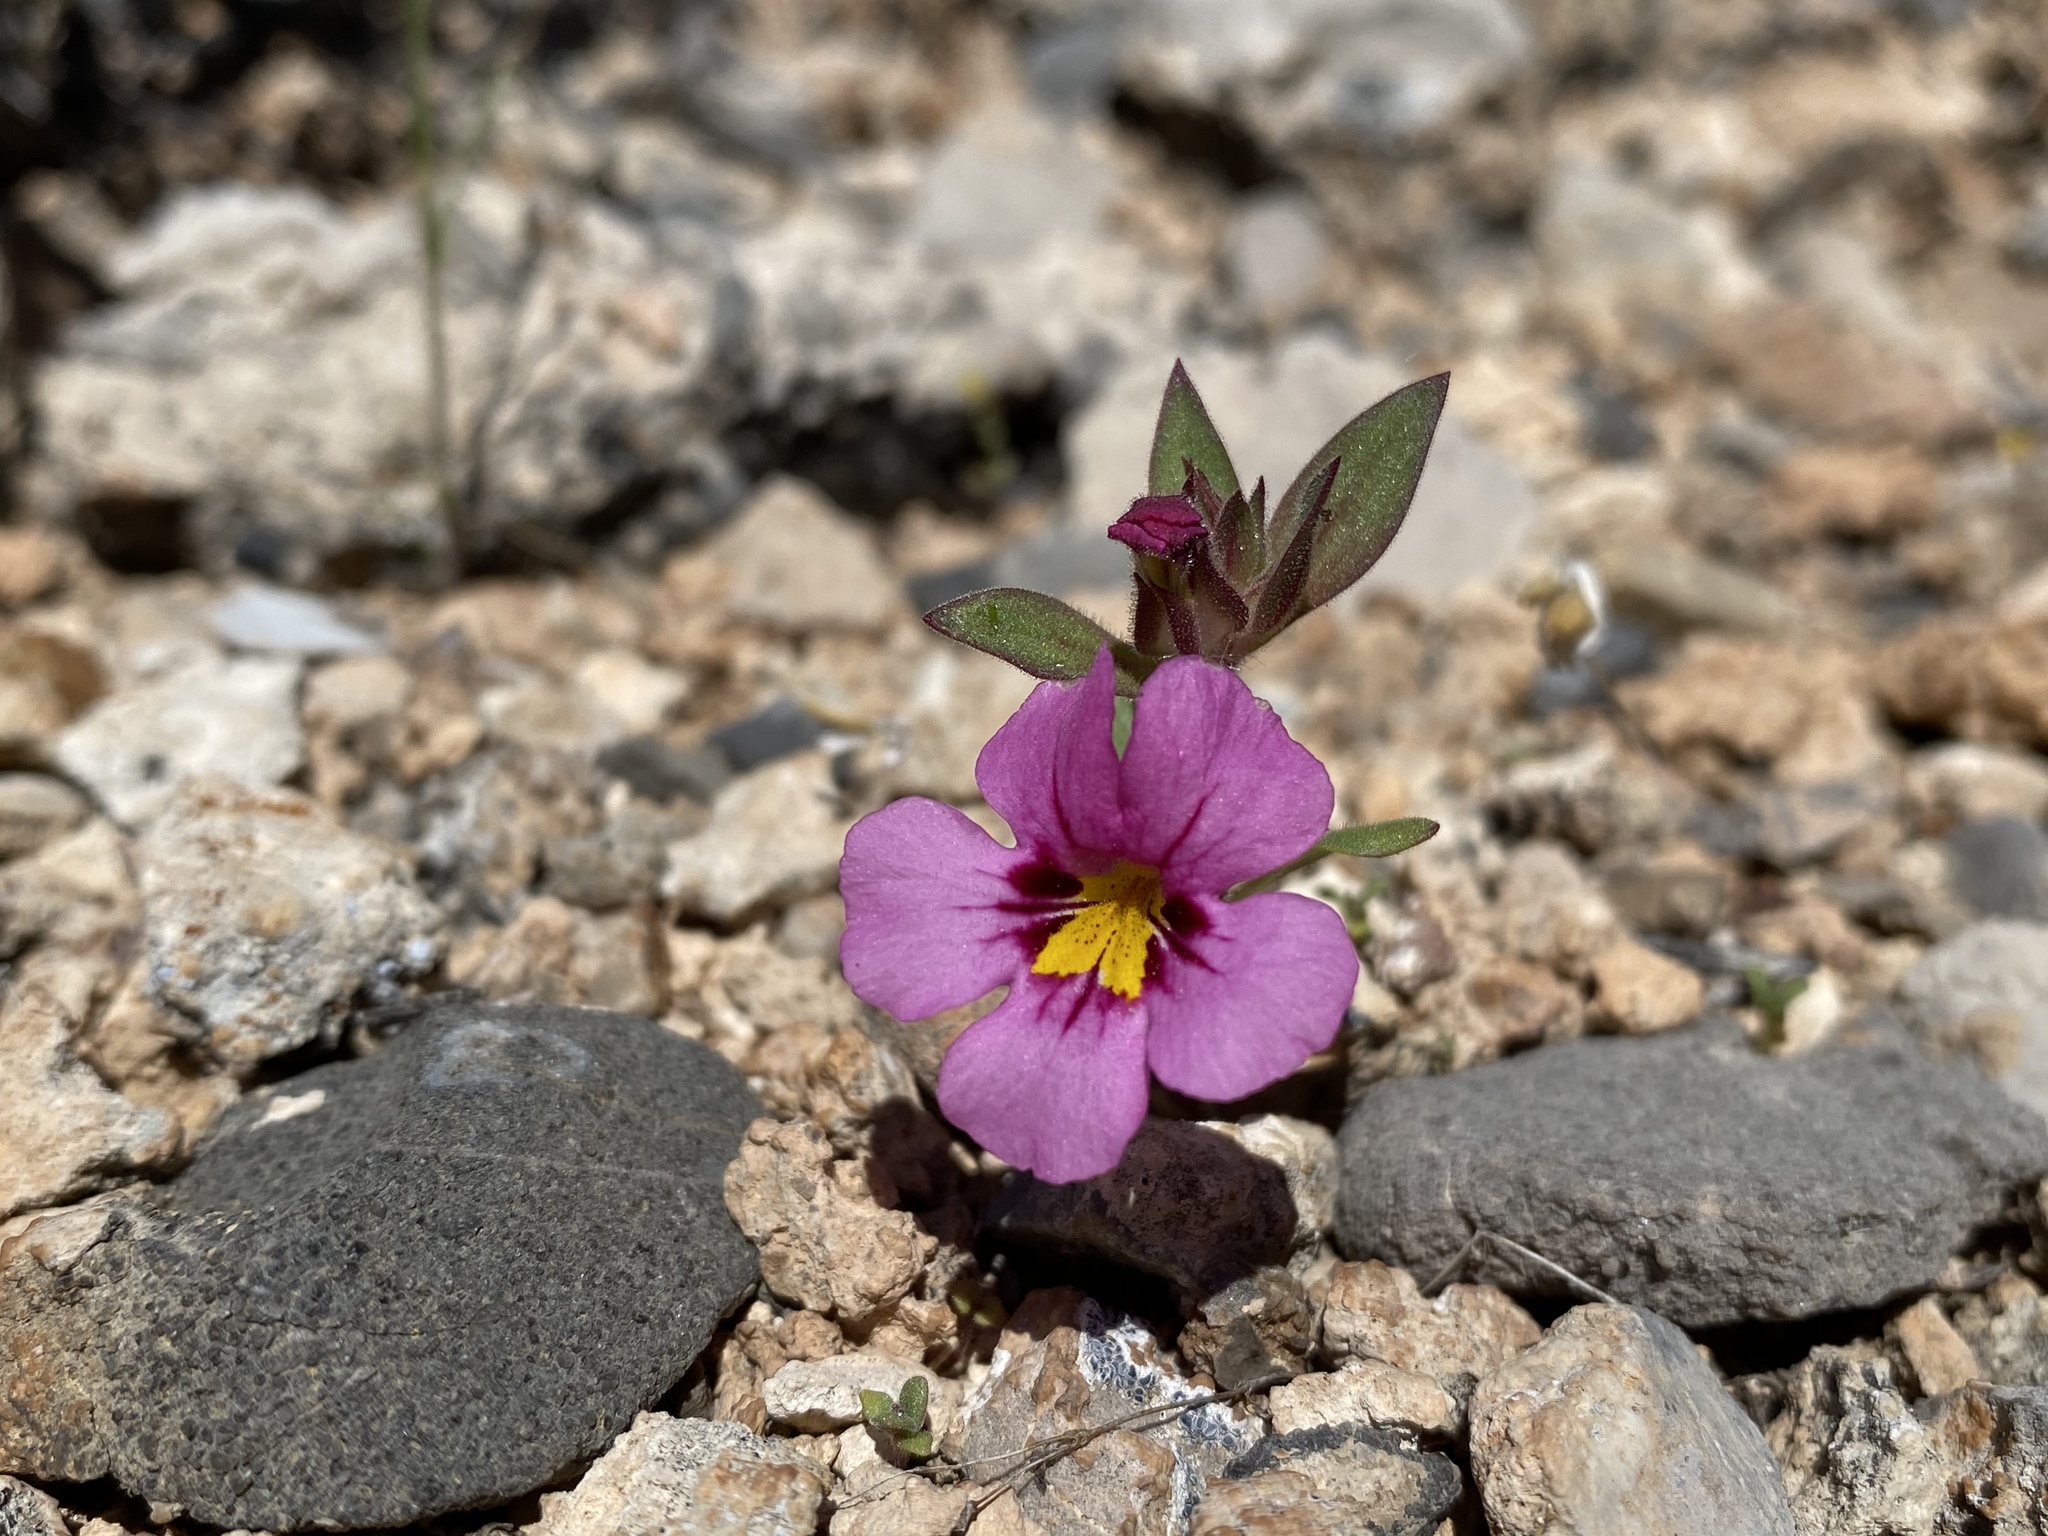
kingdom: Plantae
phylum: Tracheophyta
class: Magnoliopsida
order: Lamiales
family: Phrymaceae
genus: Diplacus
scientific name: Diplacus bigelovii
